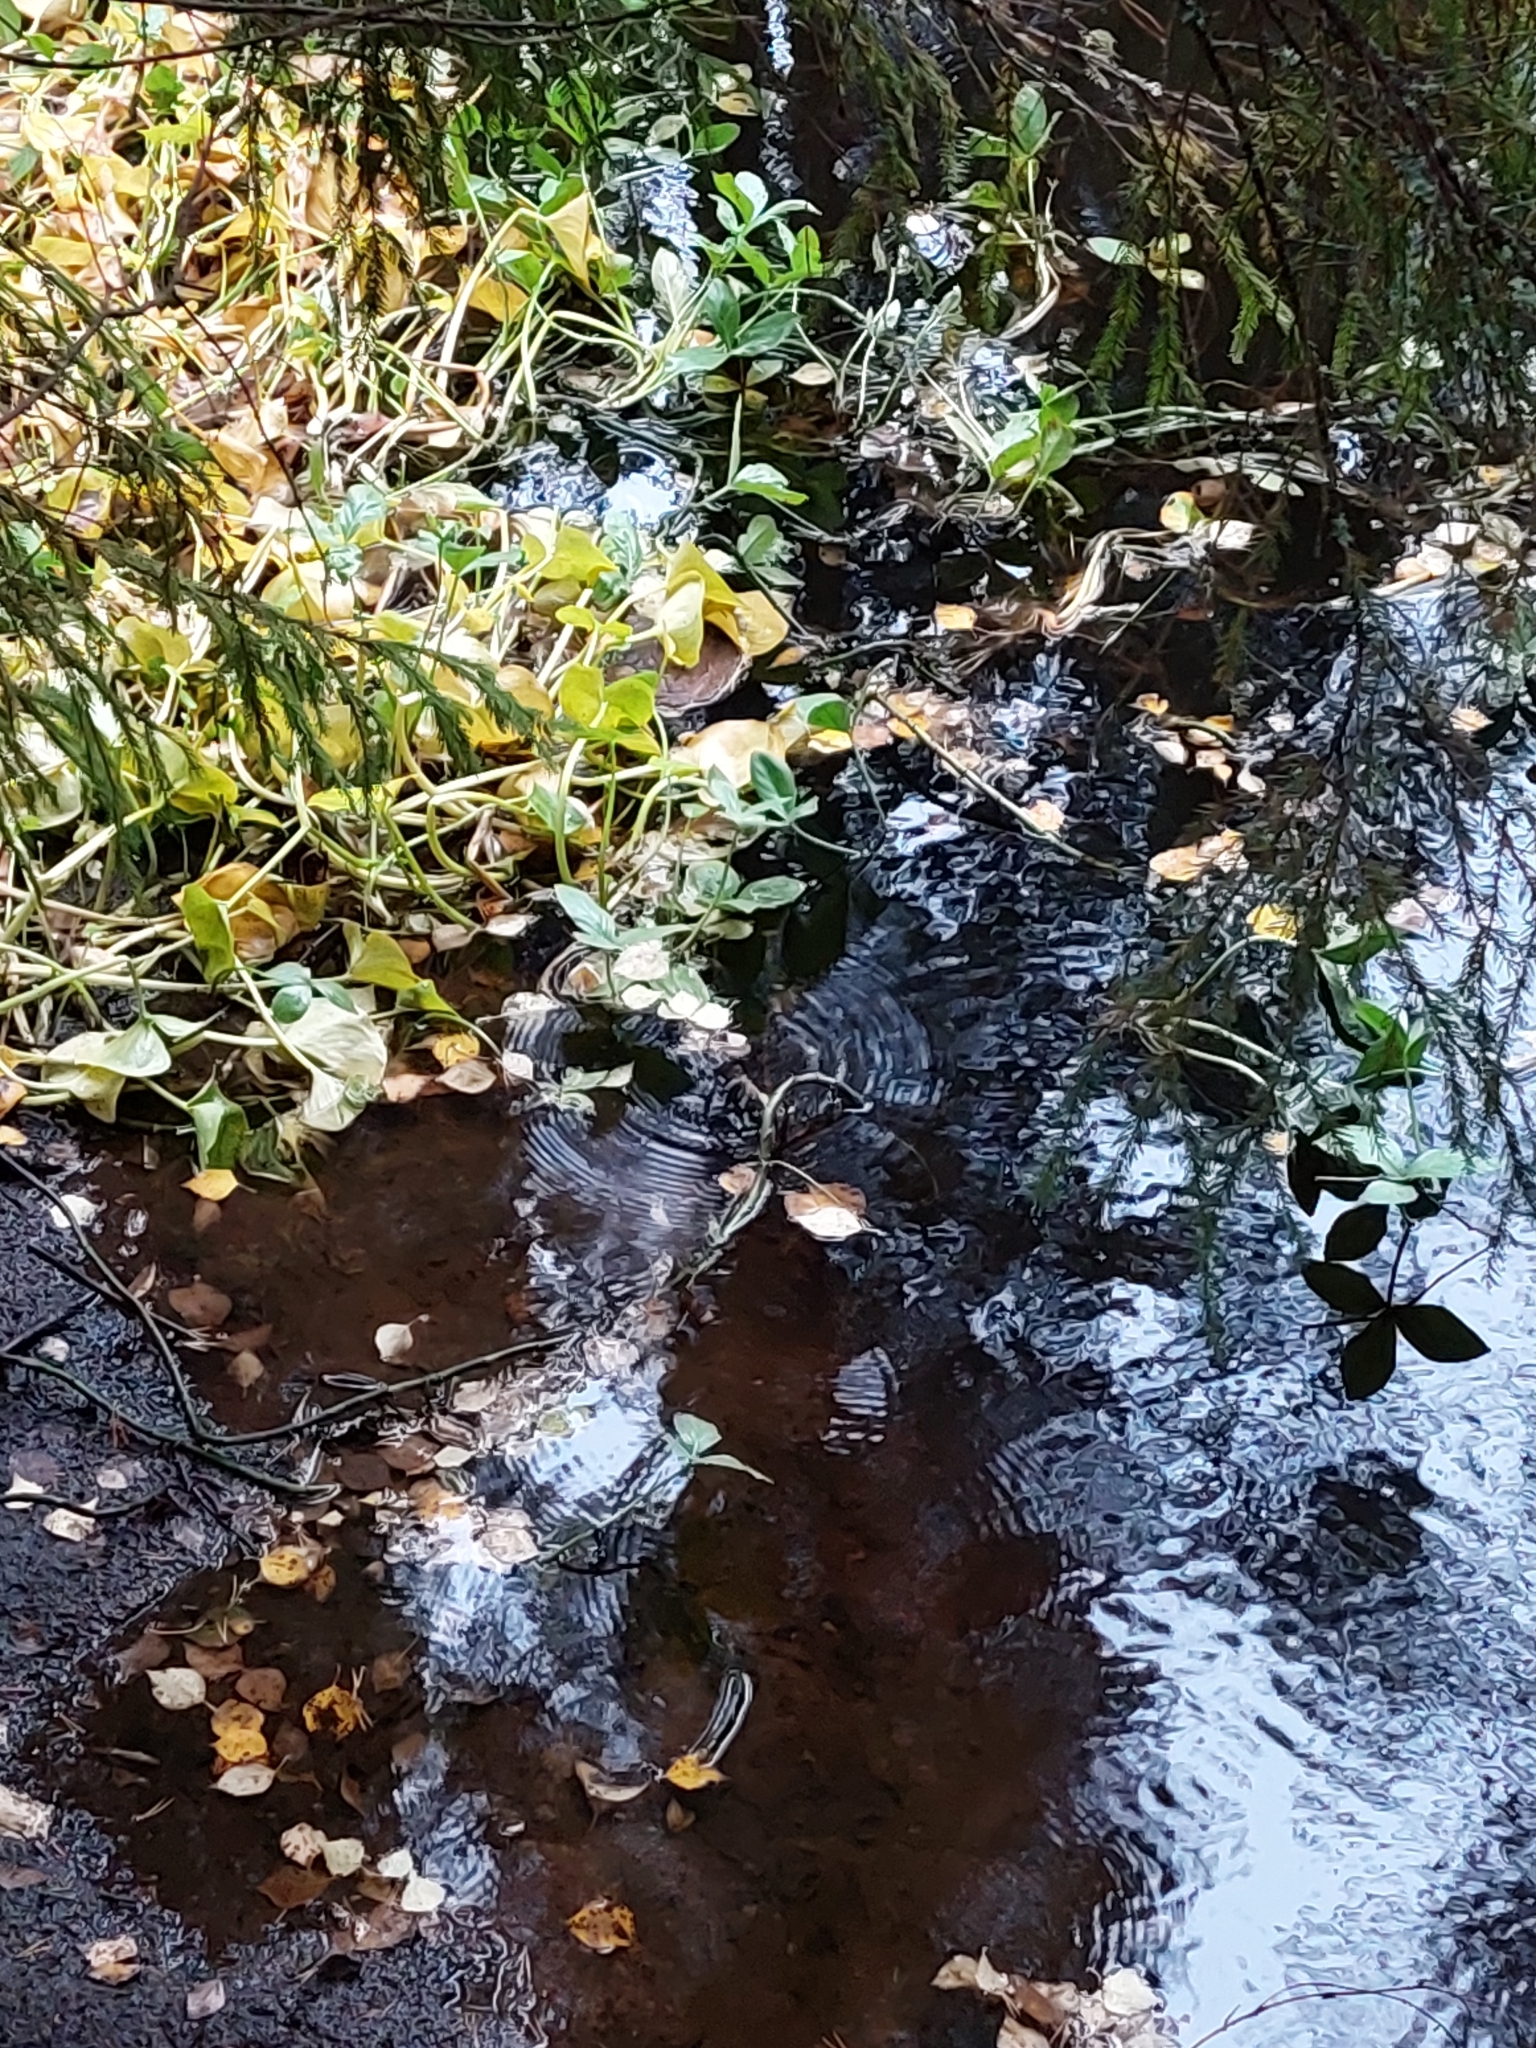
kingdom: Plantae
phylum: Tracheophyta
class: Magnoliopsida
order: Asterales
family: Menyanthaceae
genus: Menyanthes
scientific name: Menyanthes trifoliata
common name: Bogbean
